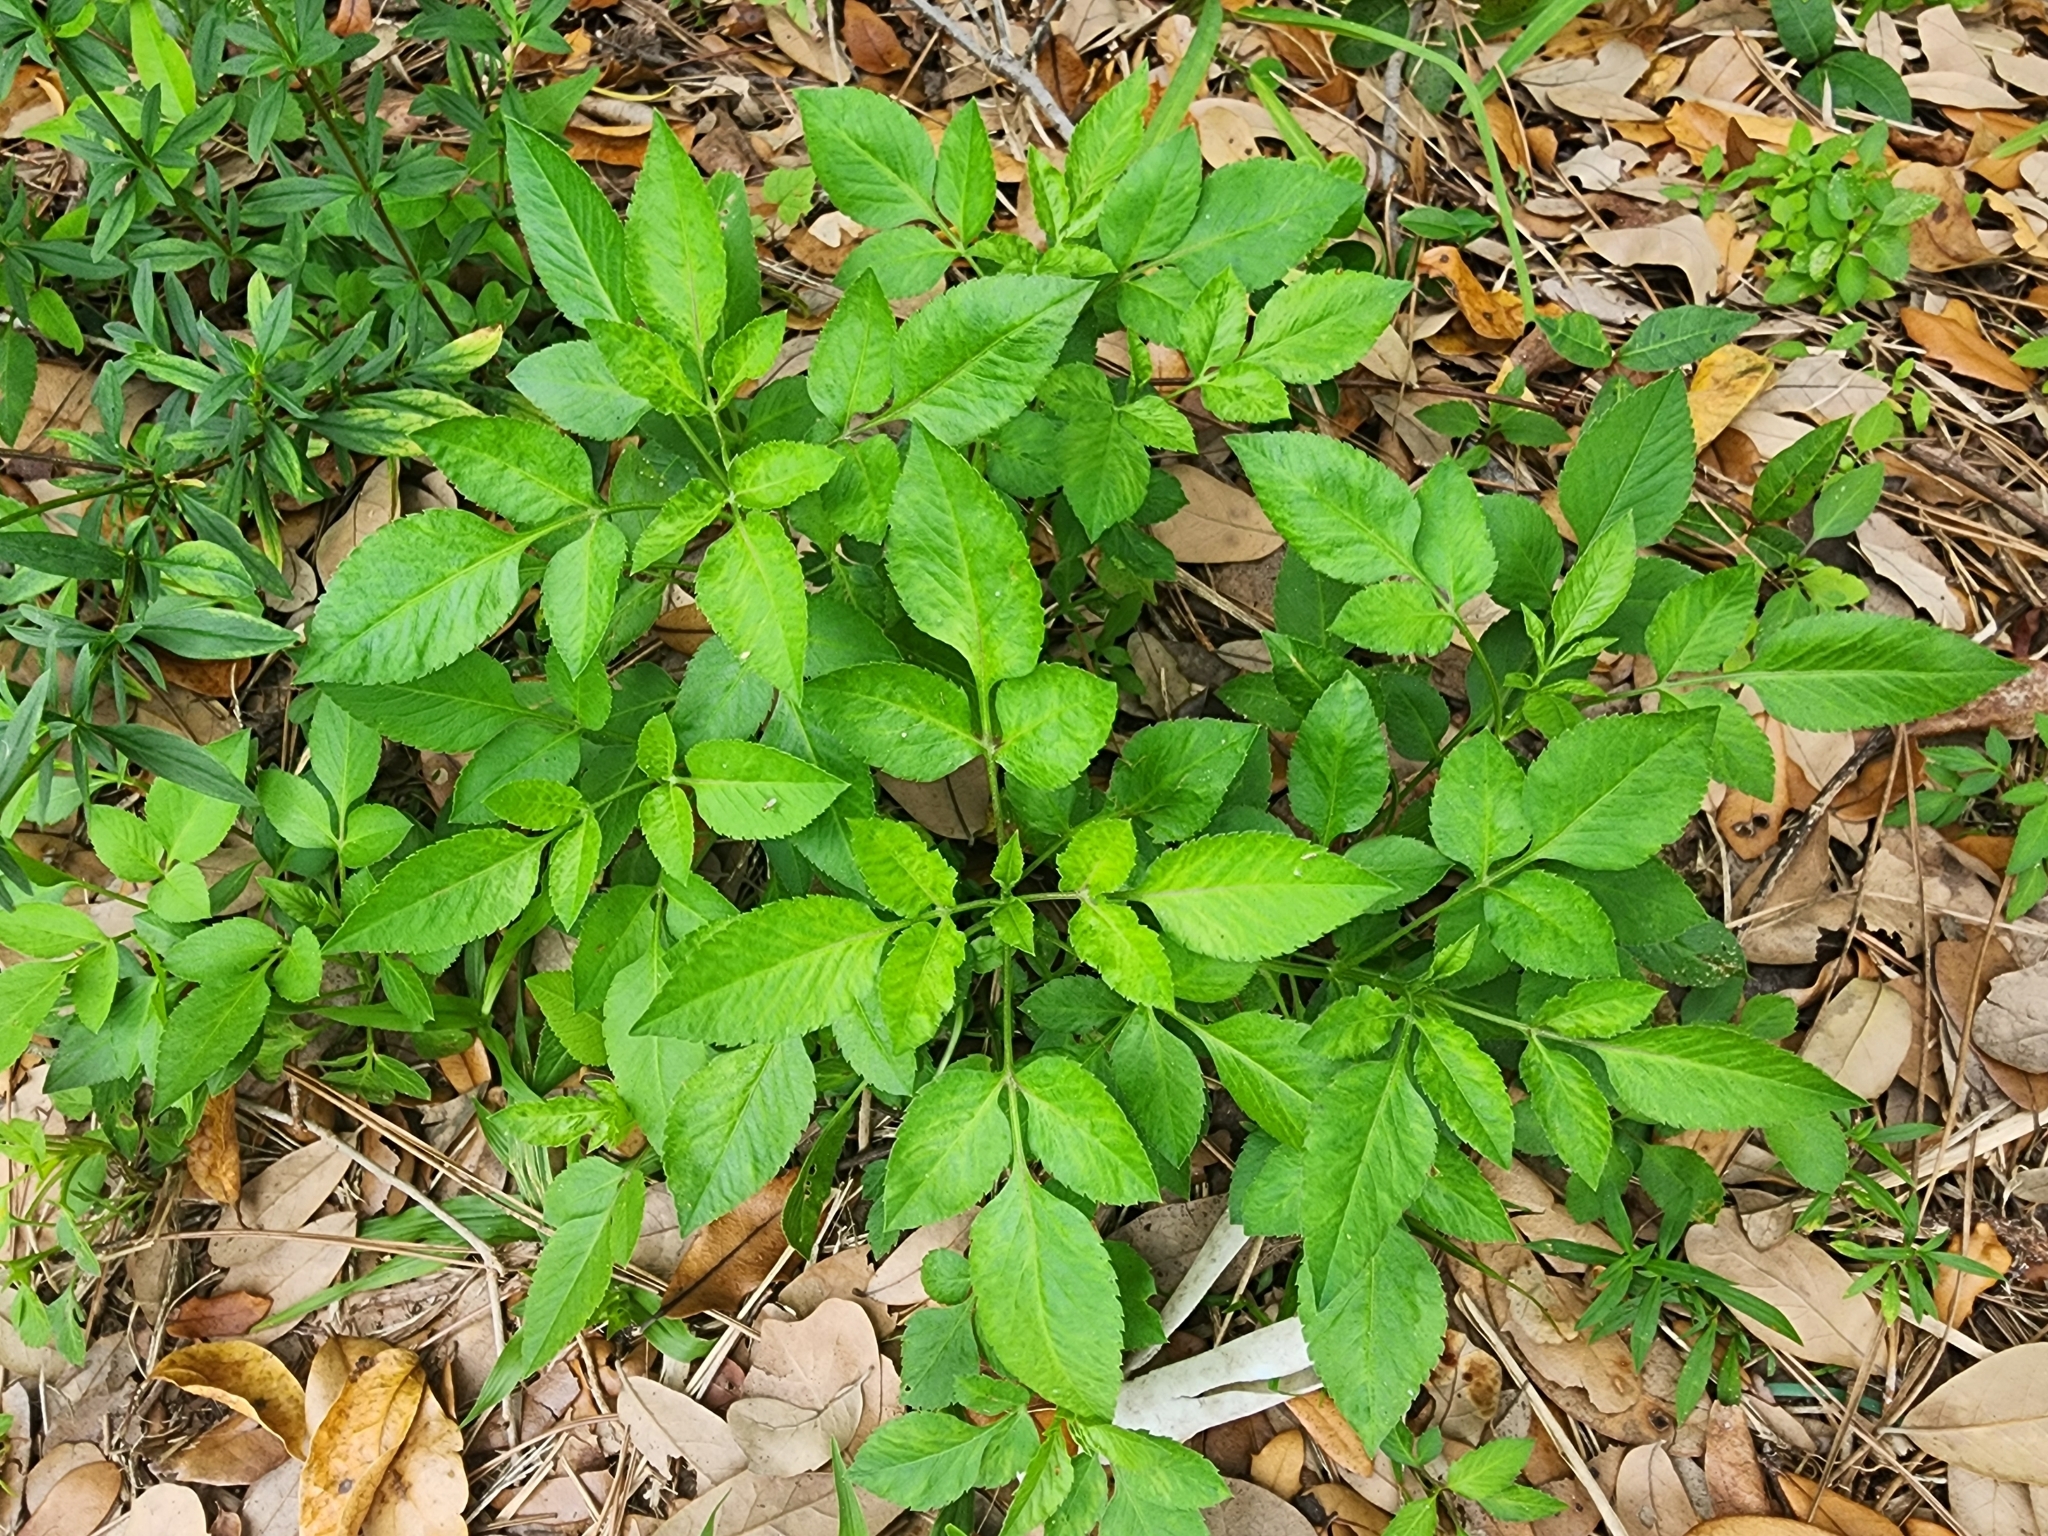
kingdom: Plantae
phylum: Tracheophyta
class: Magnoliopsida
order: Asterales
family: Asteraceae
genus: Bidens
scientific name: Bidens alba
